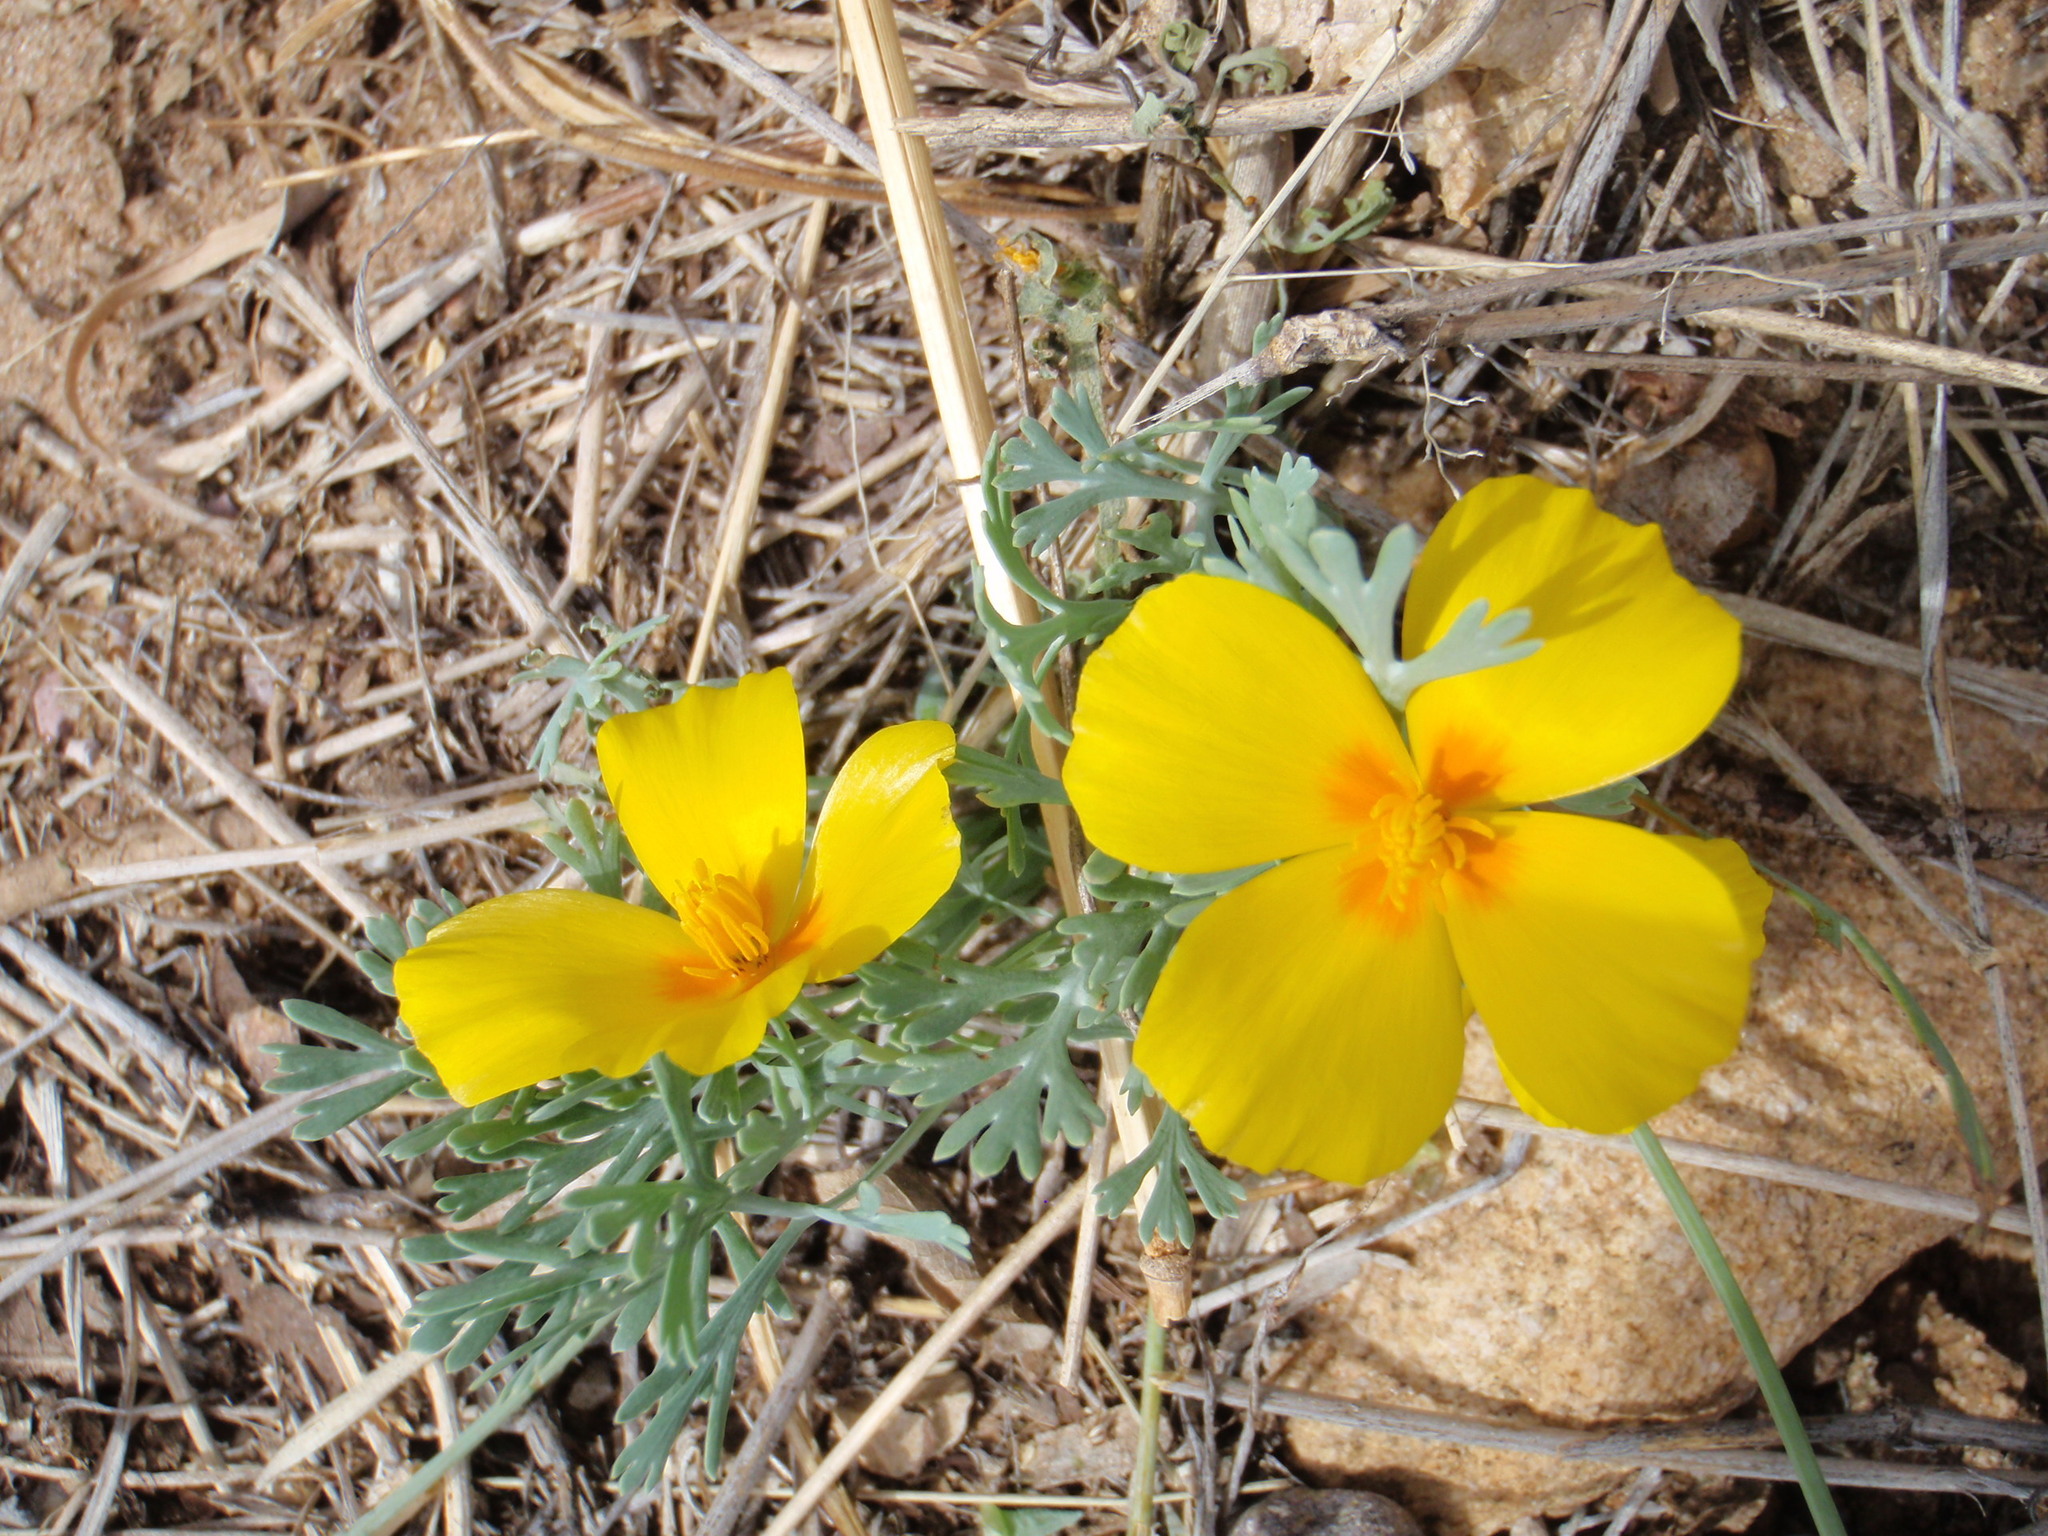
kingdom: Plantae
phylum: Tracheophyta
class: Magnoliopsida
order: Ranunculales
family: Papaveraceae
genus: Eschscholzia
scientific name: Eschscholzia californica
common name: California poppy
